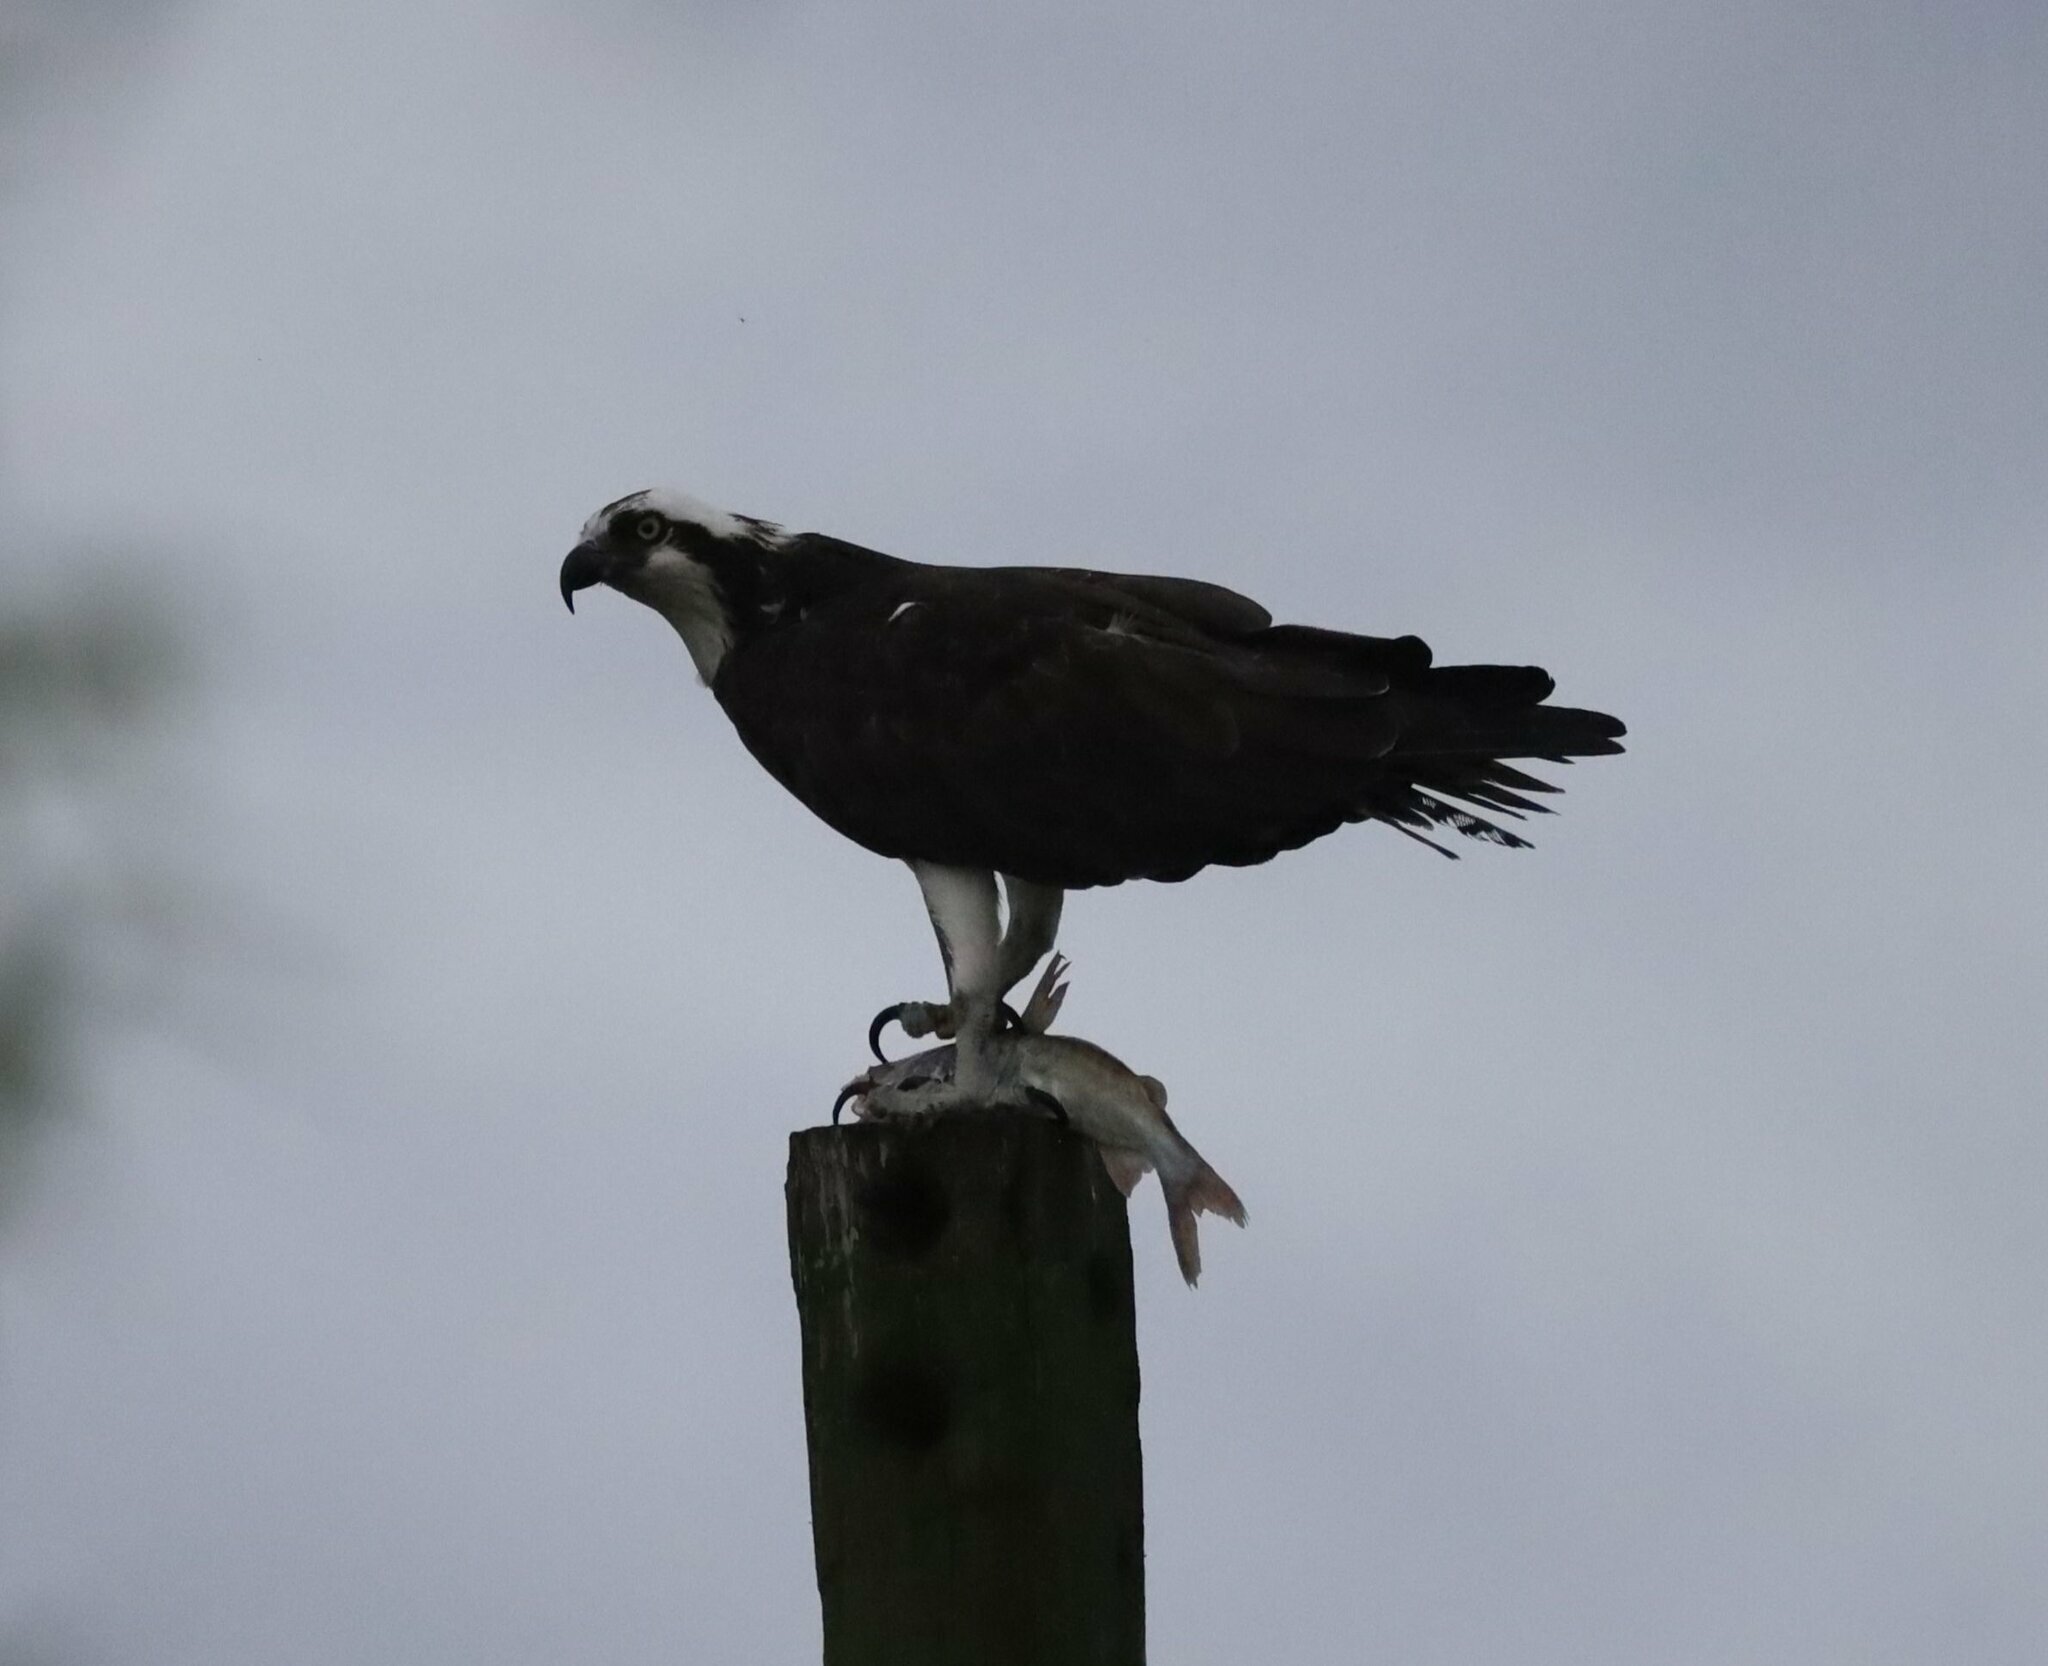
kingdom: Animalia
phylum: Chordata
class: Aves
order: Accipitriformes
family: Pandionidae
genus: Pandion
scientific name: Pandion haliaetus
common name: Osprey
